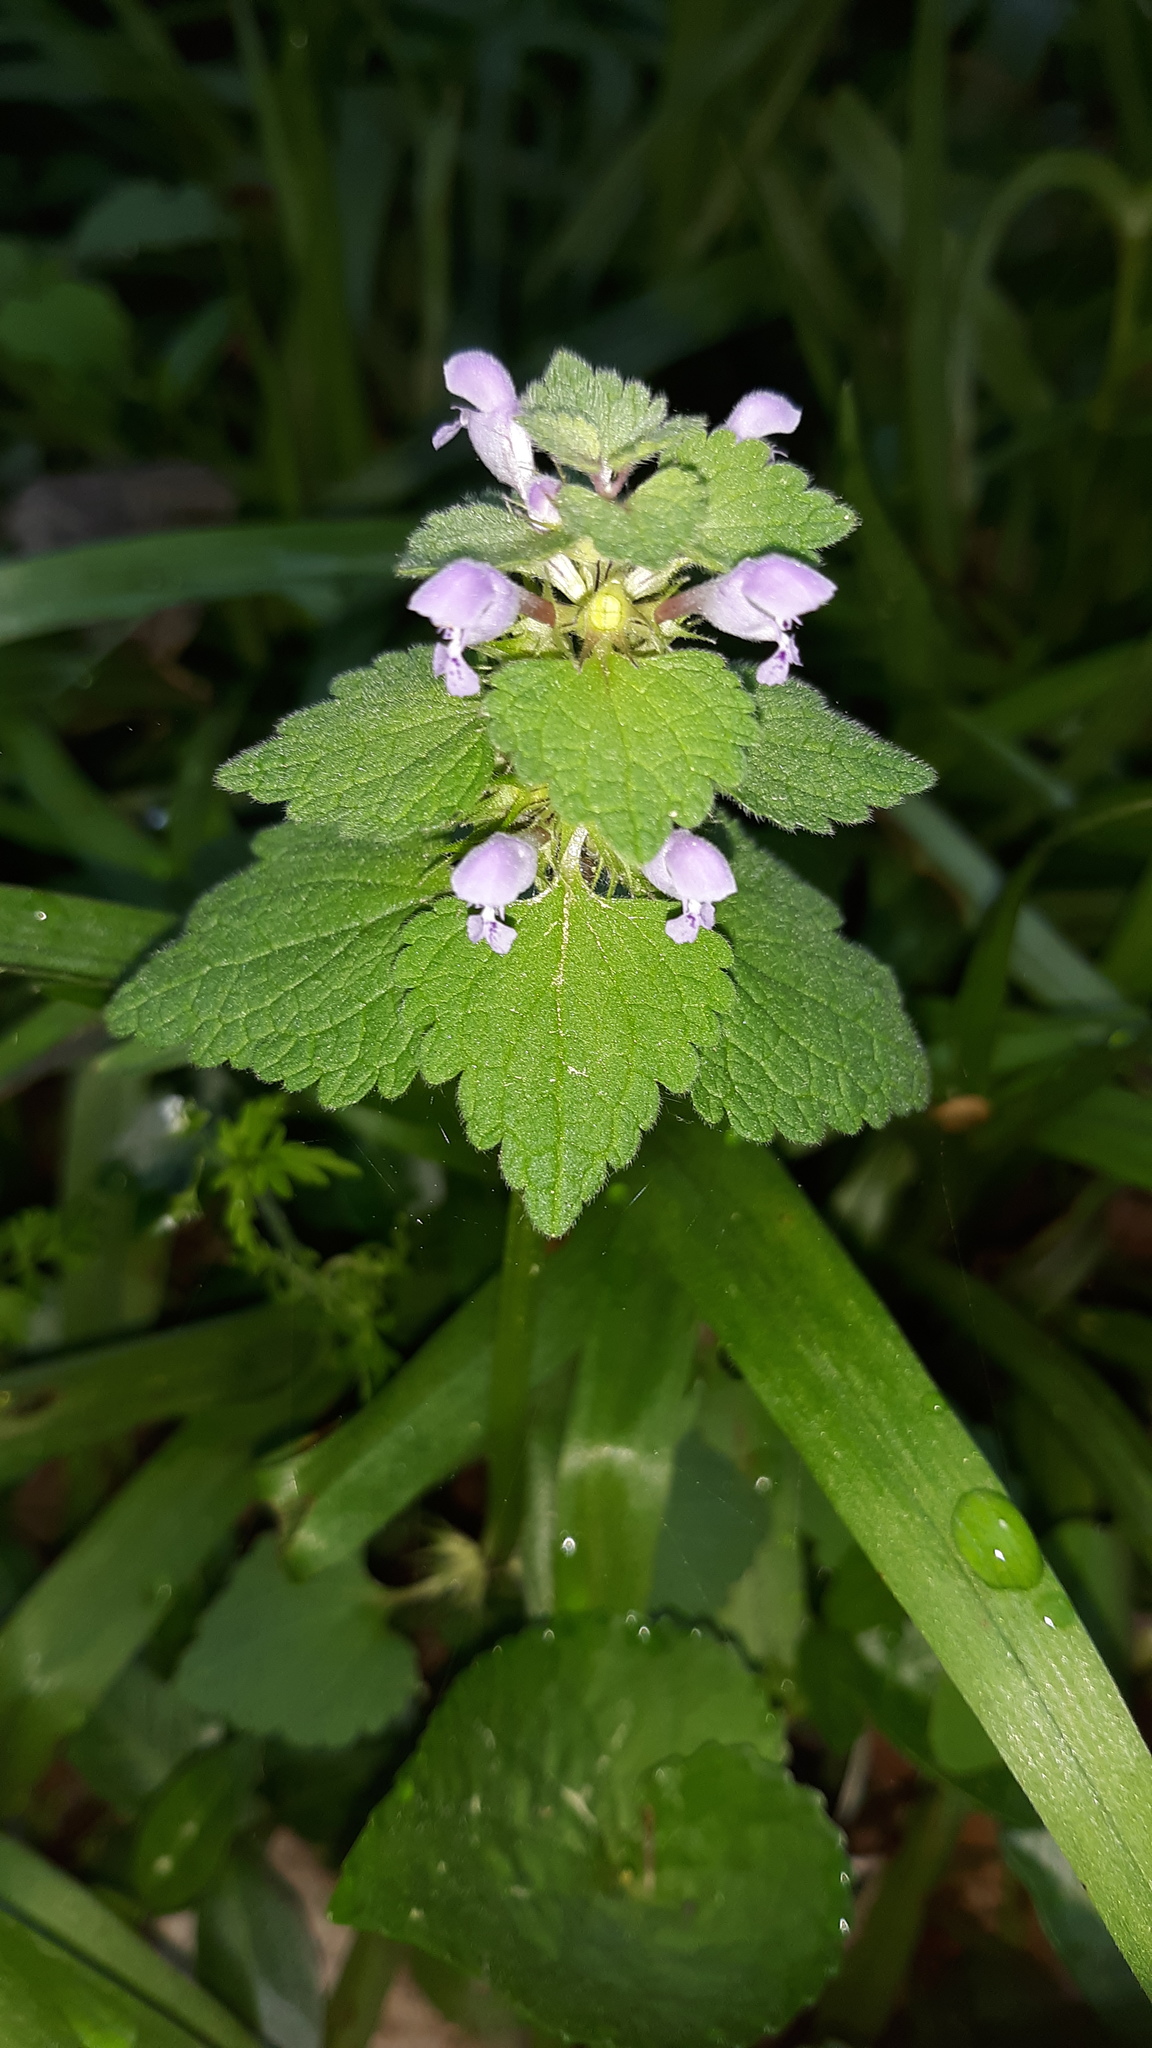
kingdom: Plantae
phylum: Tracheophyta
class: Magnoliopsida
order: Lamiales
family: Lamiaceae
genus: Lamium
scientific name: Lamium purpureum
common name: Red dead-nettle
